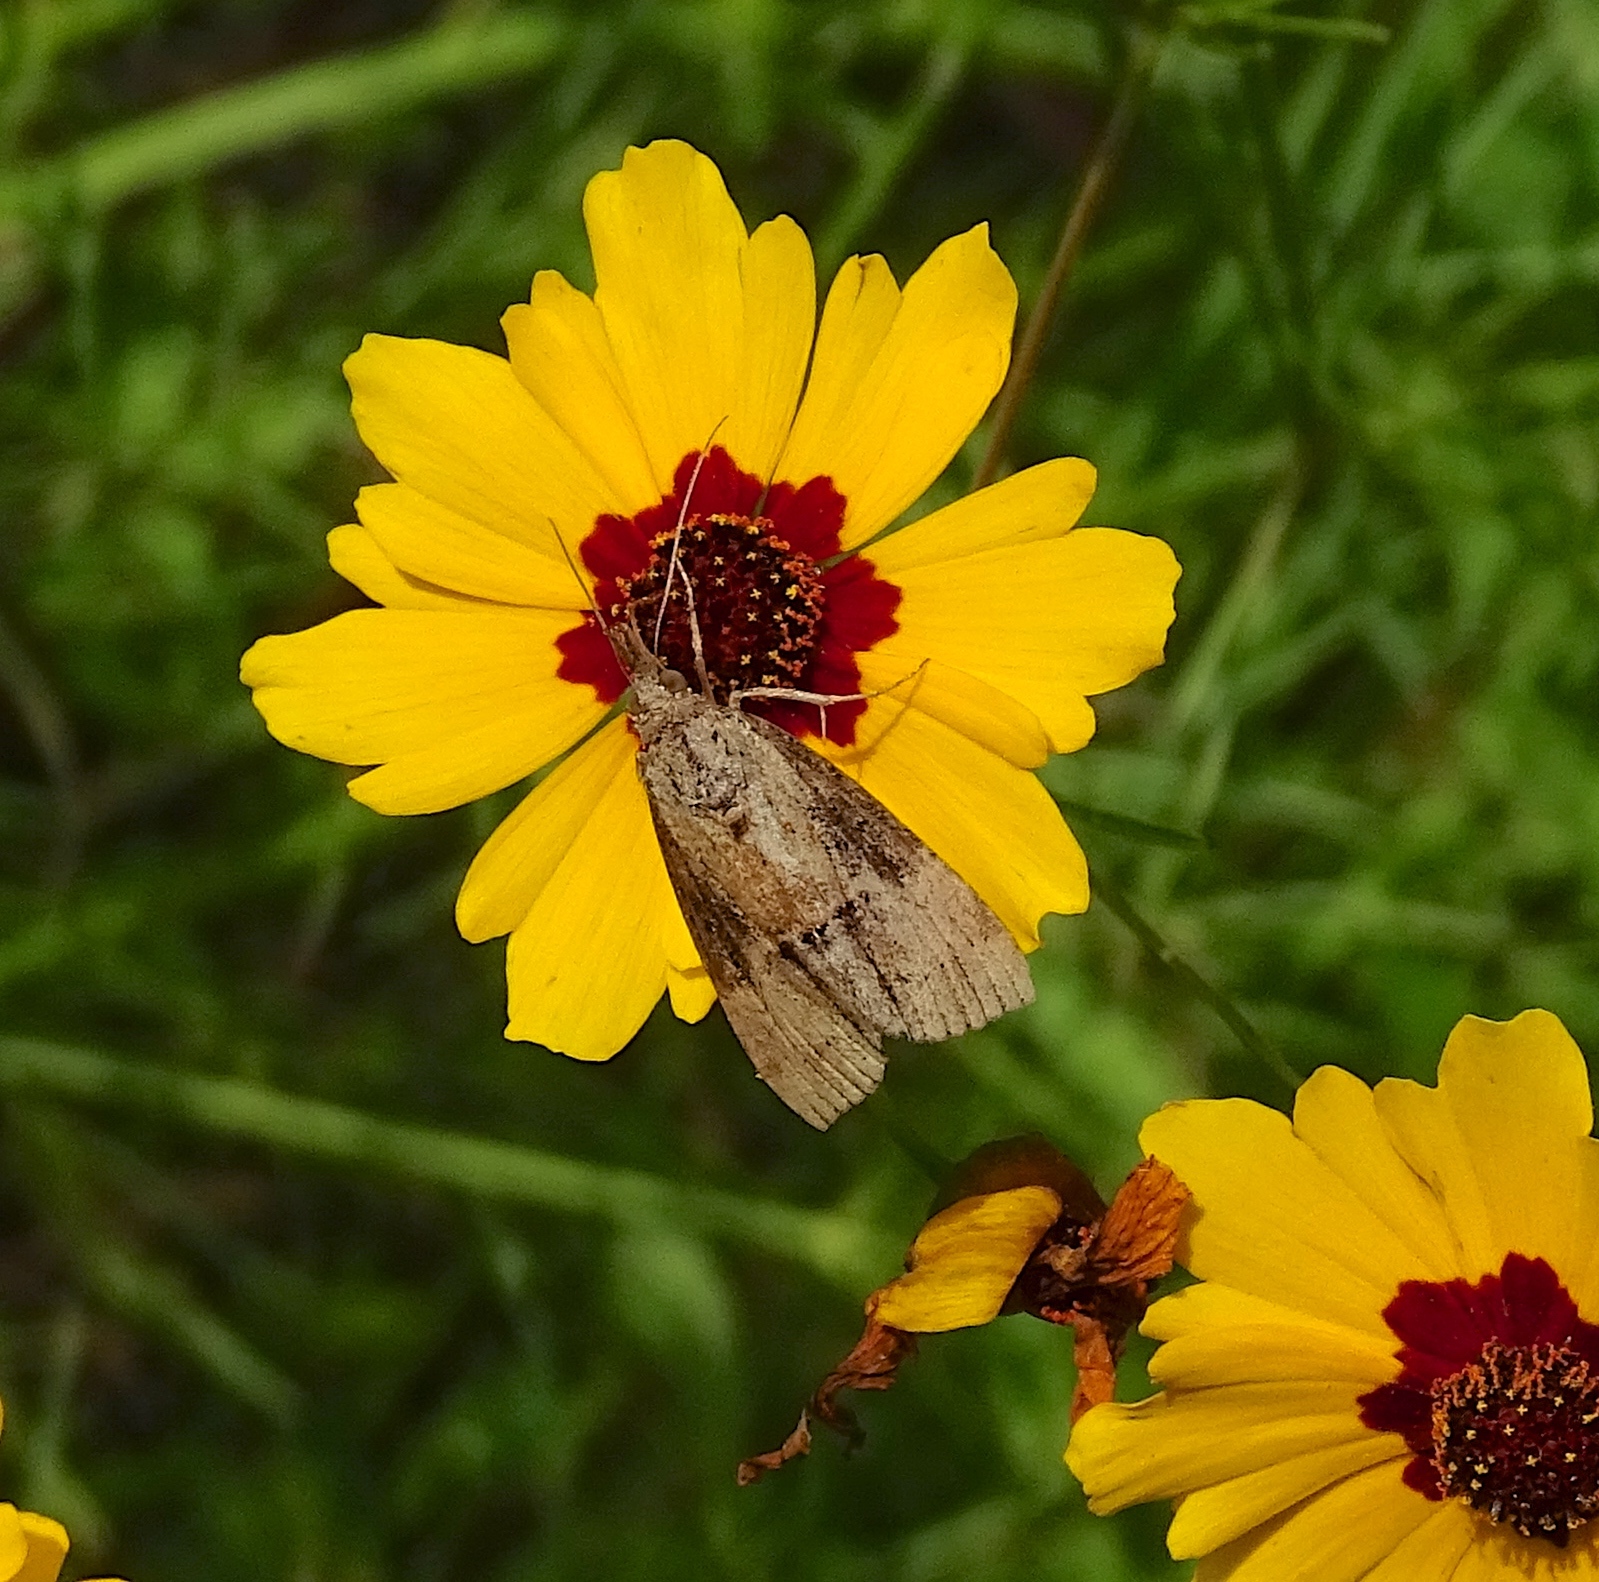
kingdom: Animalia
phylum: Arthropoda
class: Insecta
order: Lepidoptera
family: Erebidae
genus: Hypena
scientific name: Hypena scabra
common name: Green cloverworm
